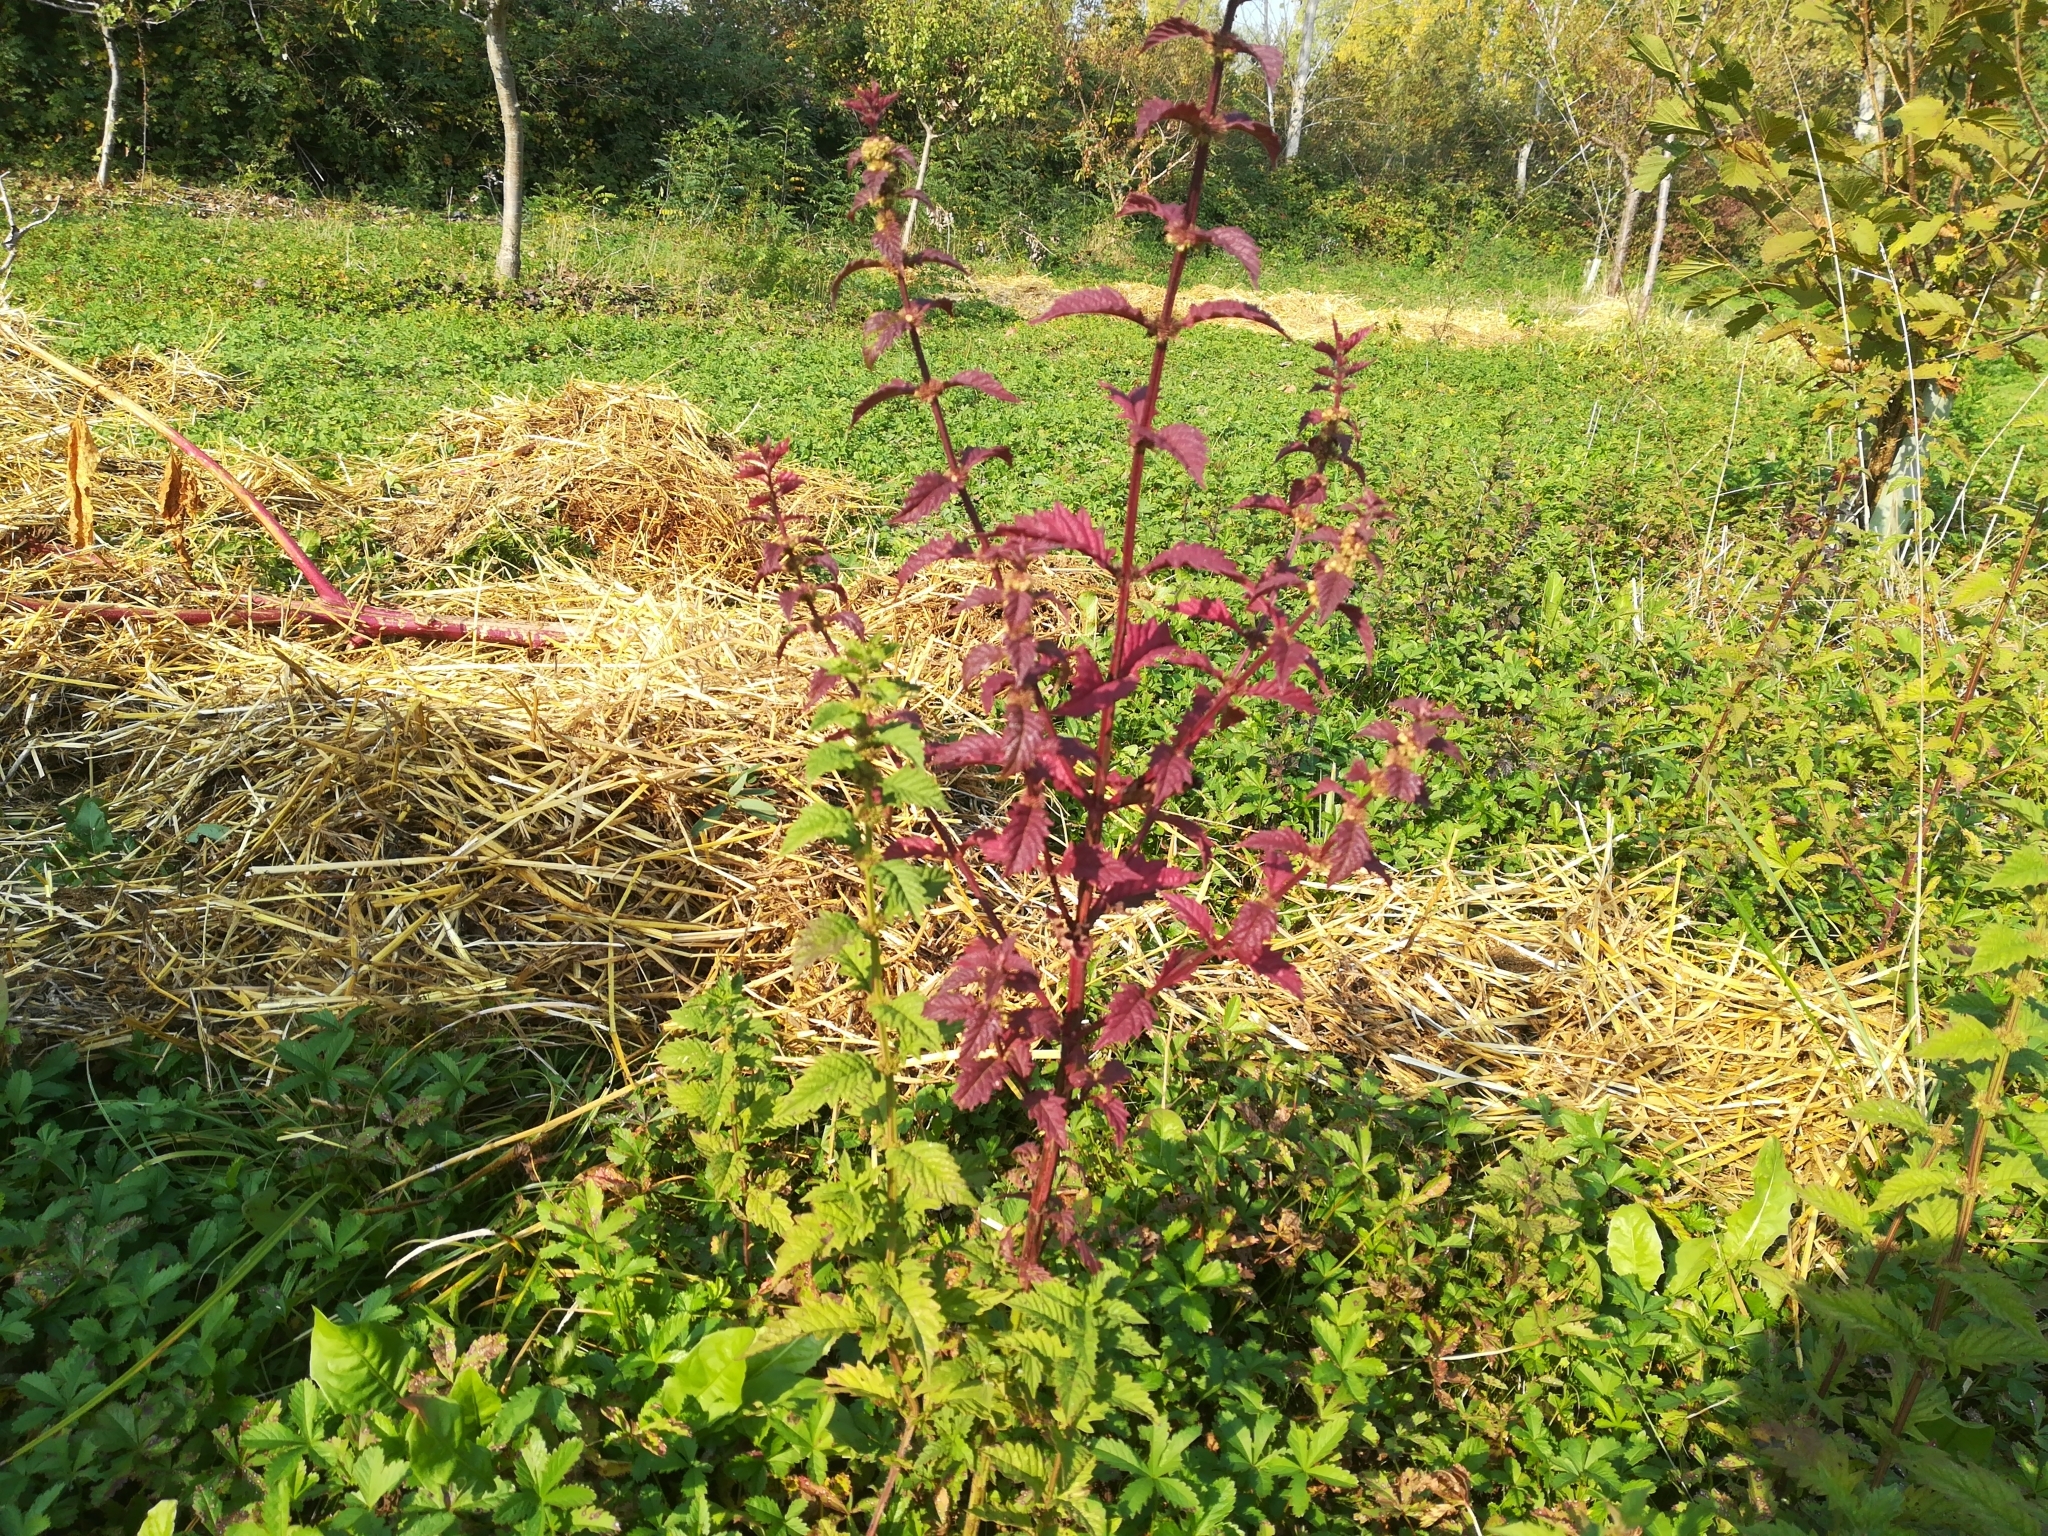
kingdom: Plantae
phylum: Tracheophyta
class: Magnoliopsida
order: Lamiales
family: Lamiaceae
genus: Lycopus
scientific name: Lycopus europaeus
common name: European bugleweed
